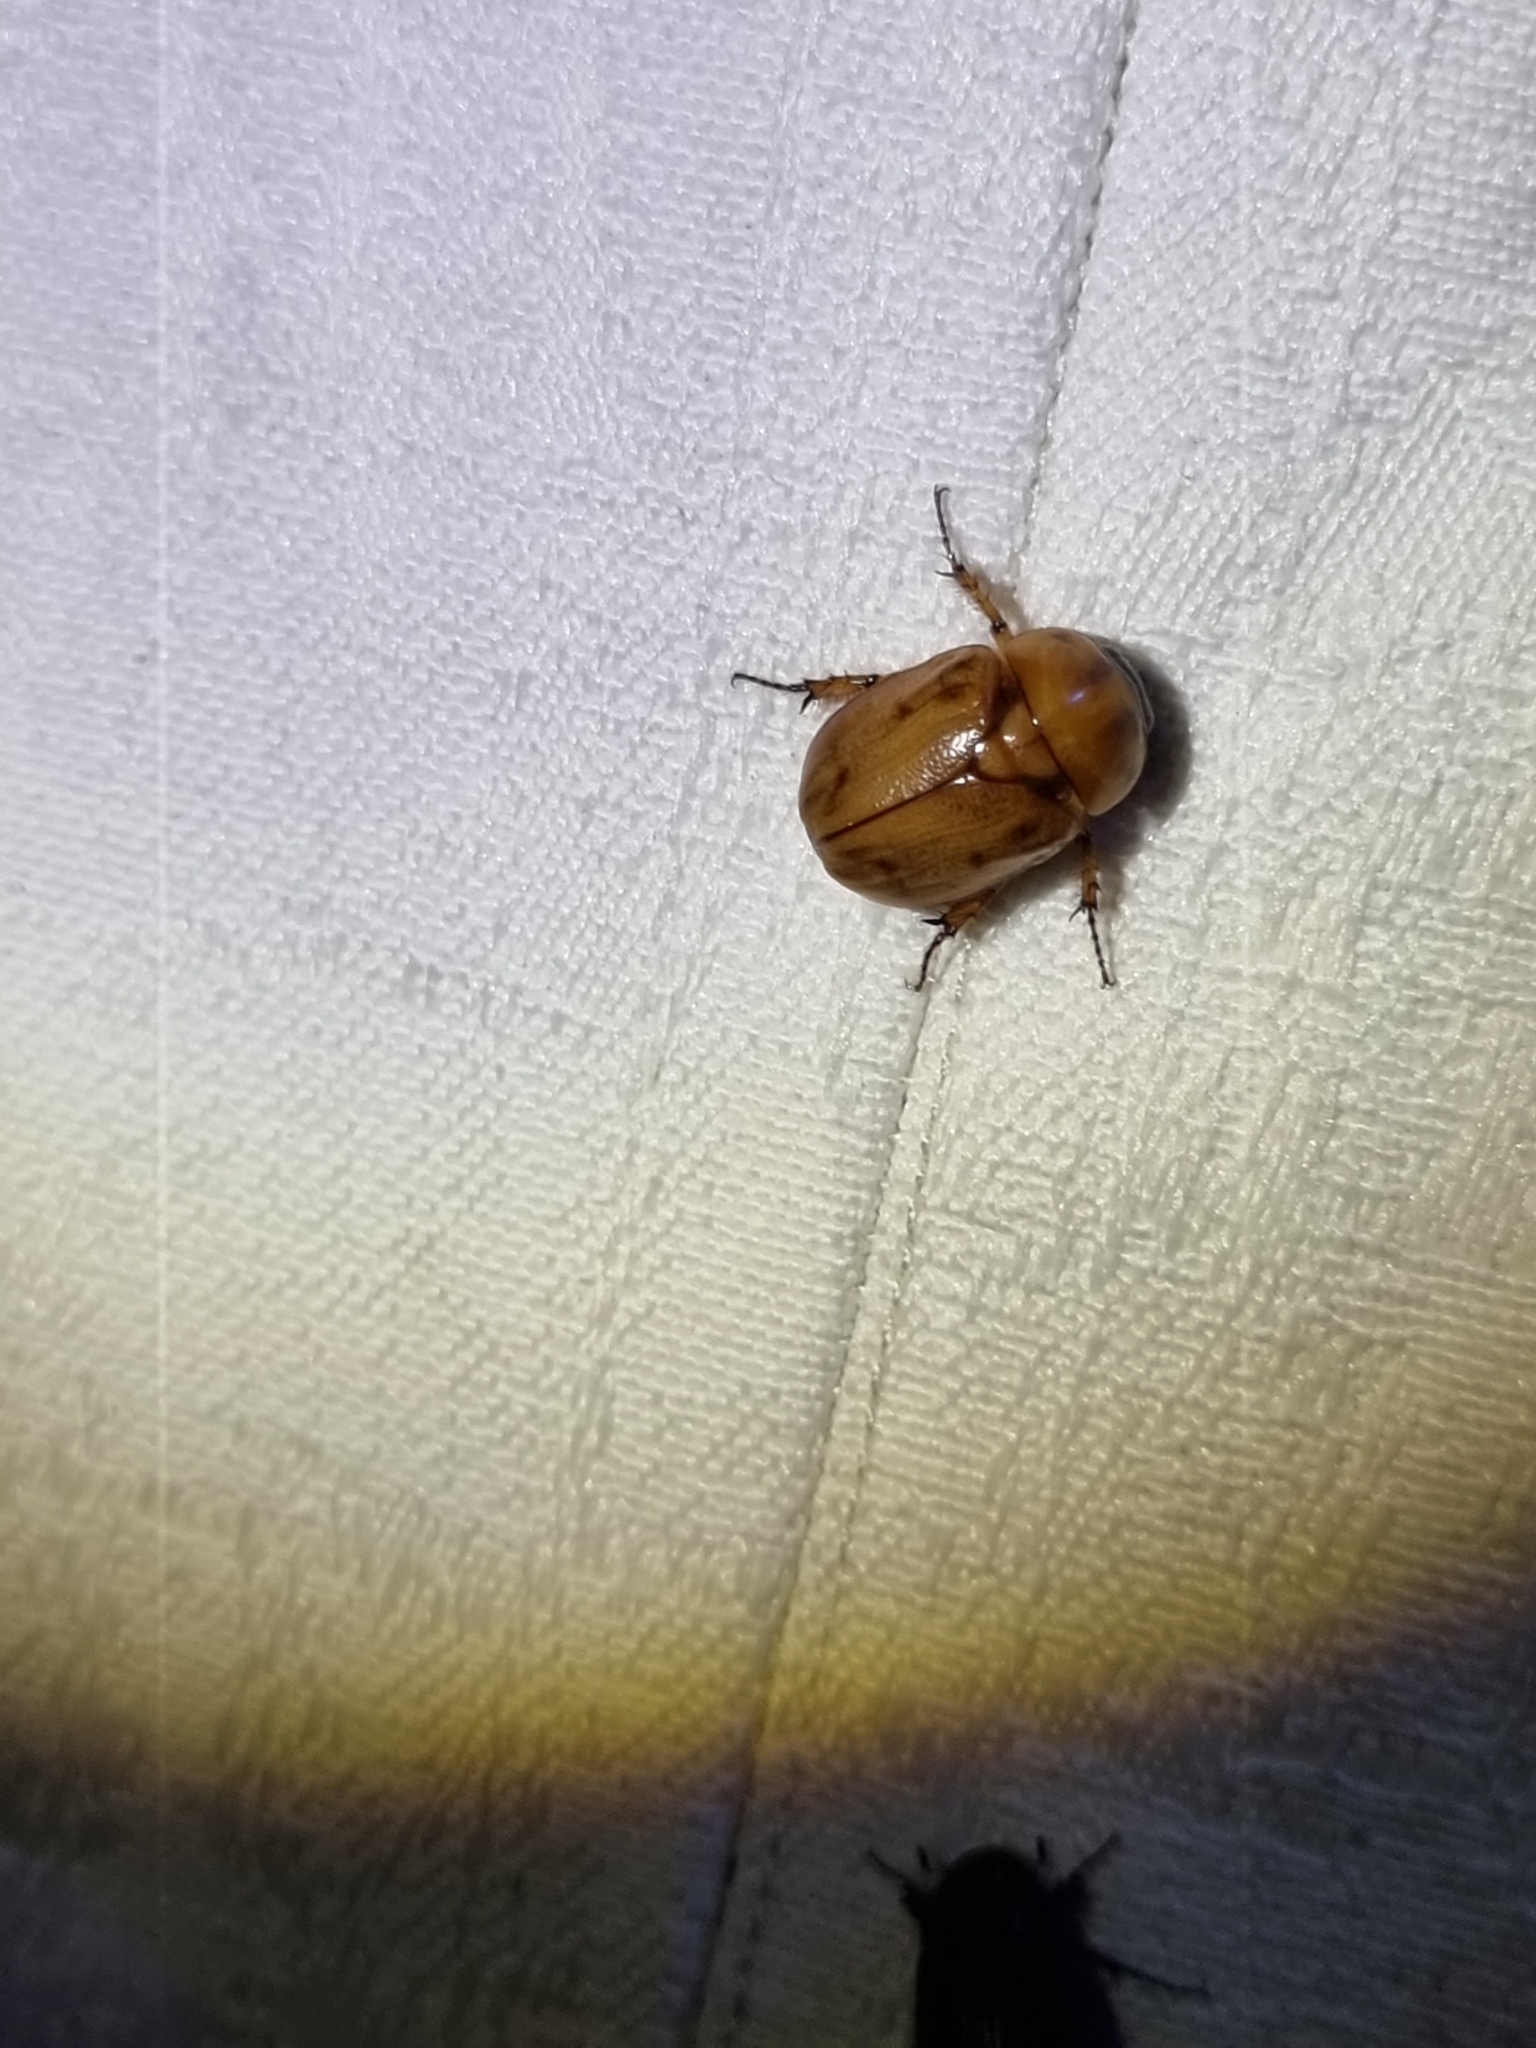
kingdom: Animalia
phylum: Arthropoda
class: Insecta
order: Coleoptera
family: Scarabaeidae
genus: Cyclocephala
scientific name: Cyclocephala signaticollis
